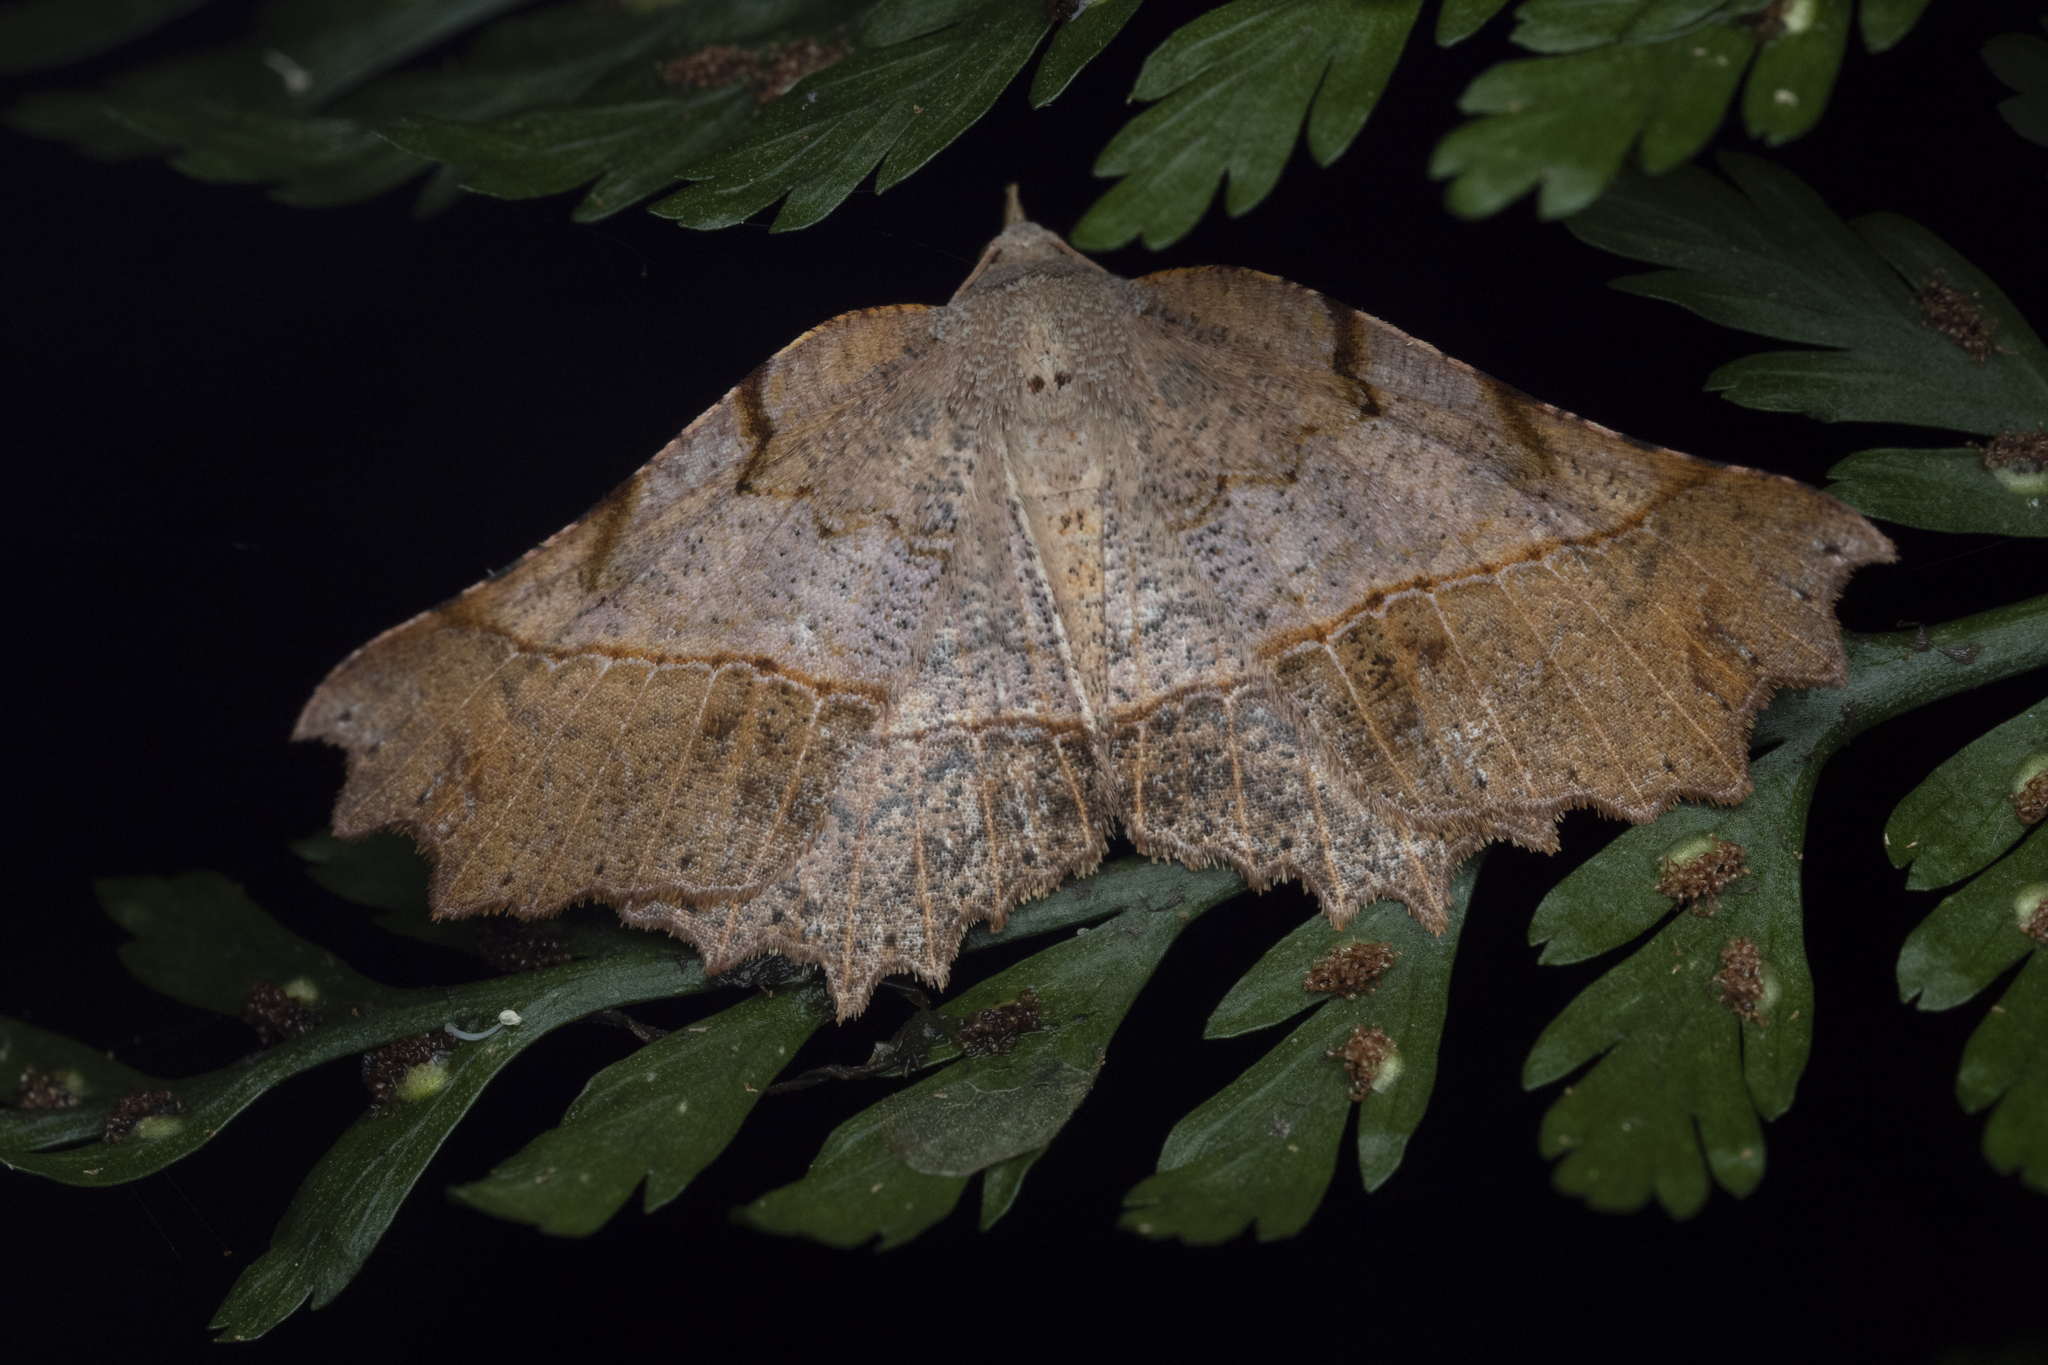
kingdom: Animalia
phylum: Arthropoda
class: Insecta
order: Lepidoptera
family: Geometridae
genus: Ischalis
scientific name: Ischalis gallaria
